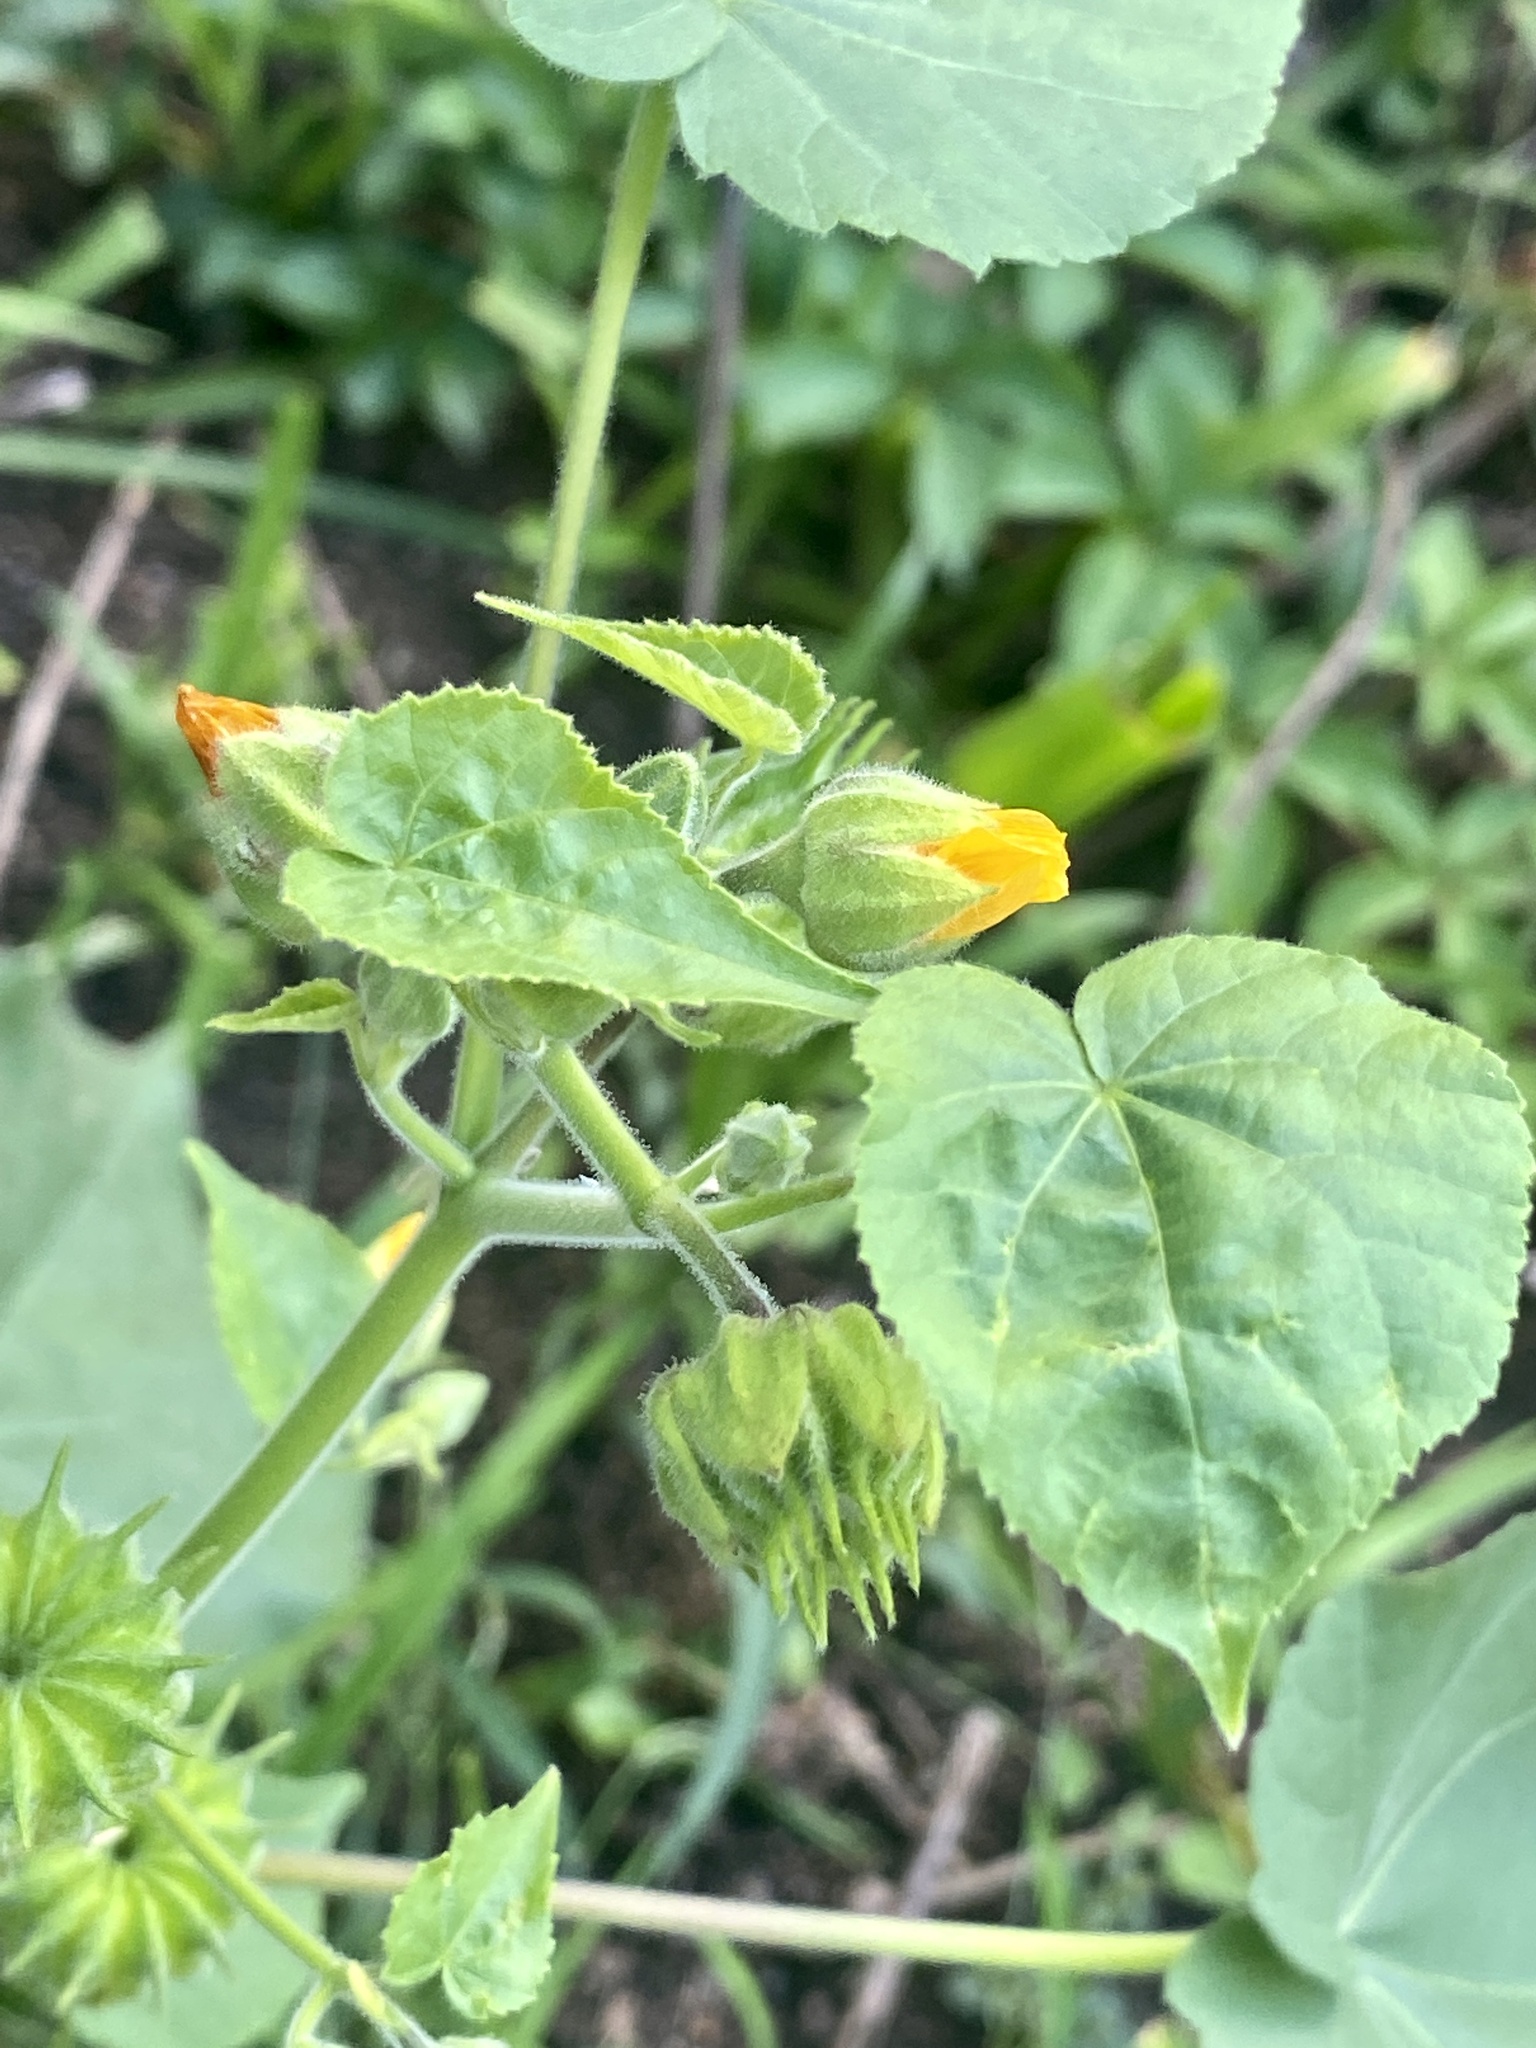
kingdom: Plantae
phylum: Tracheophyta
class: Magnoliopsida
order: Malvales
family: Malvaceae
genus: Abutilon
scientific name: Abutilon theophrasti
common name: Velvetleaf
